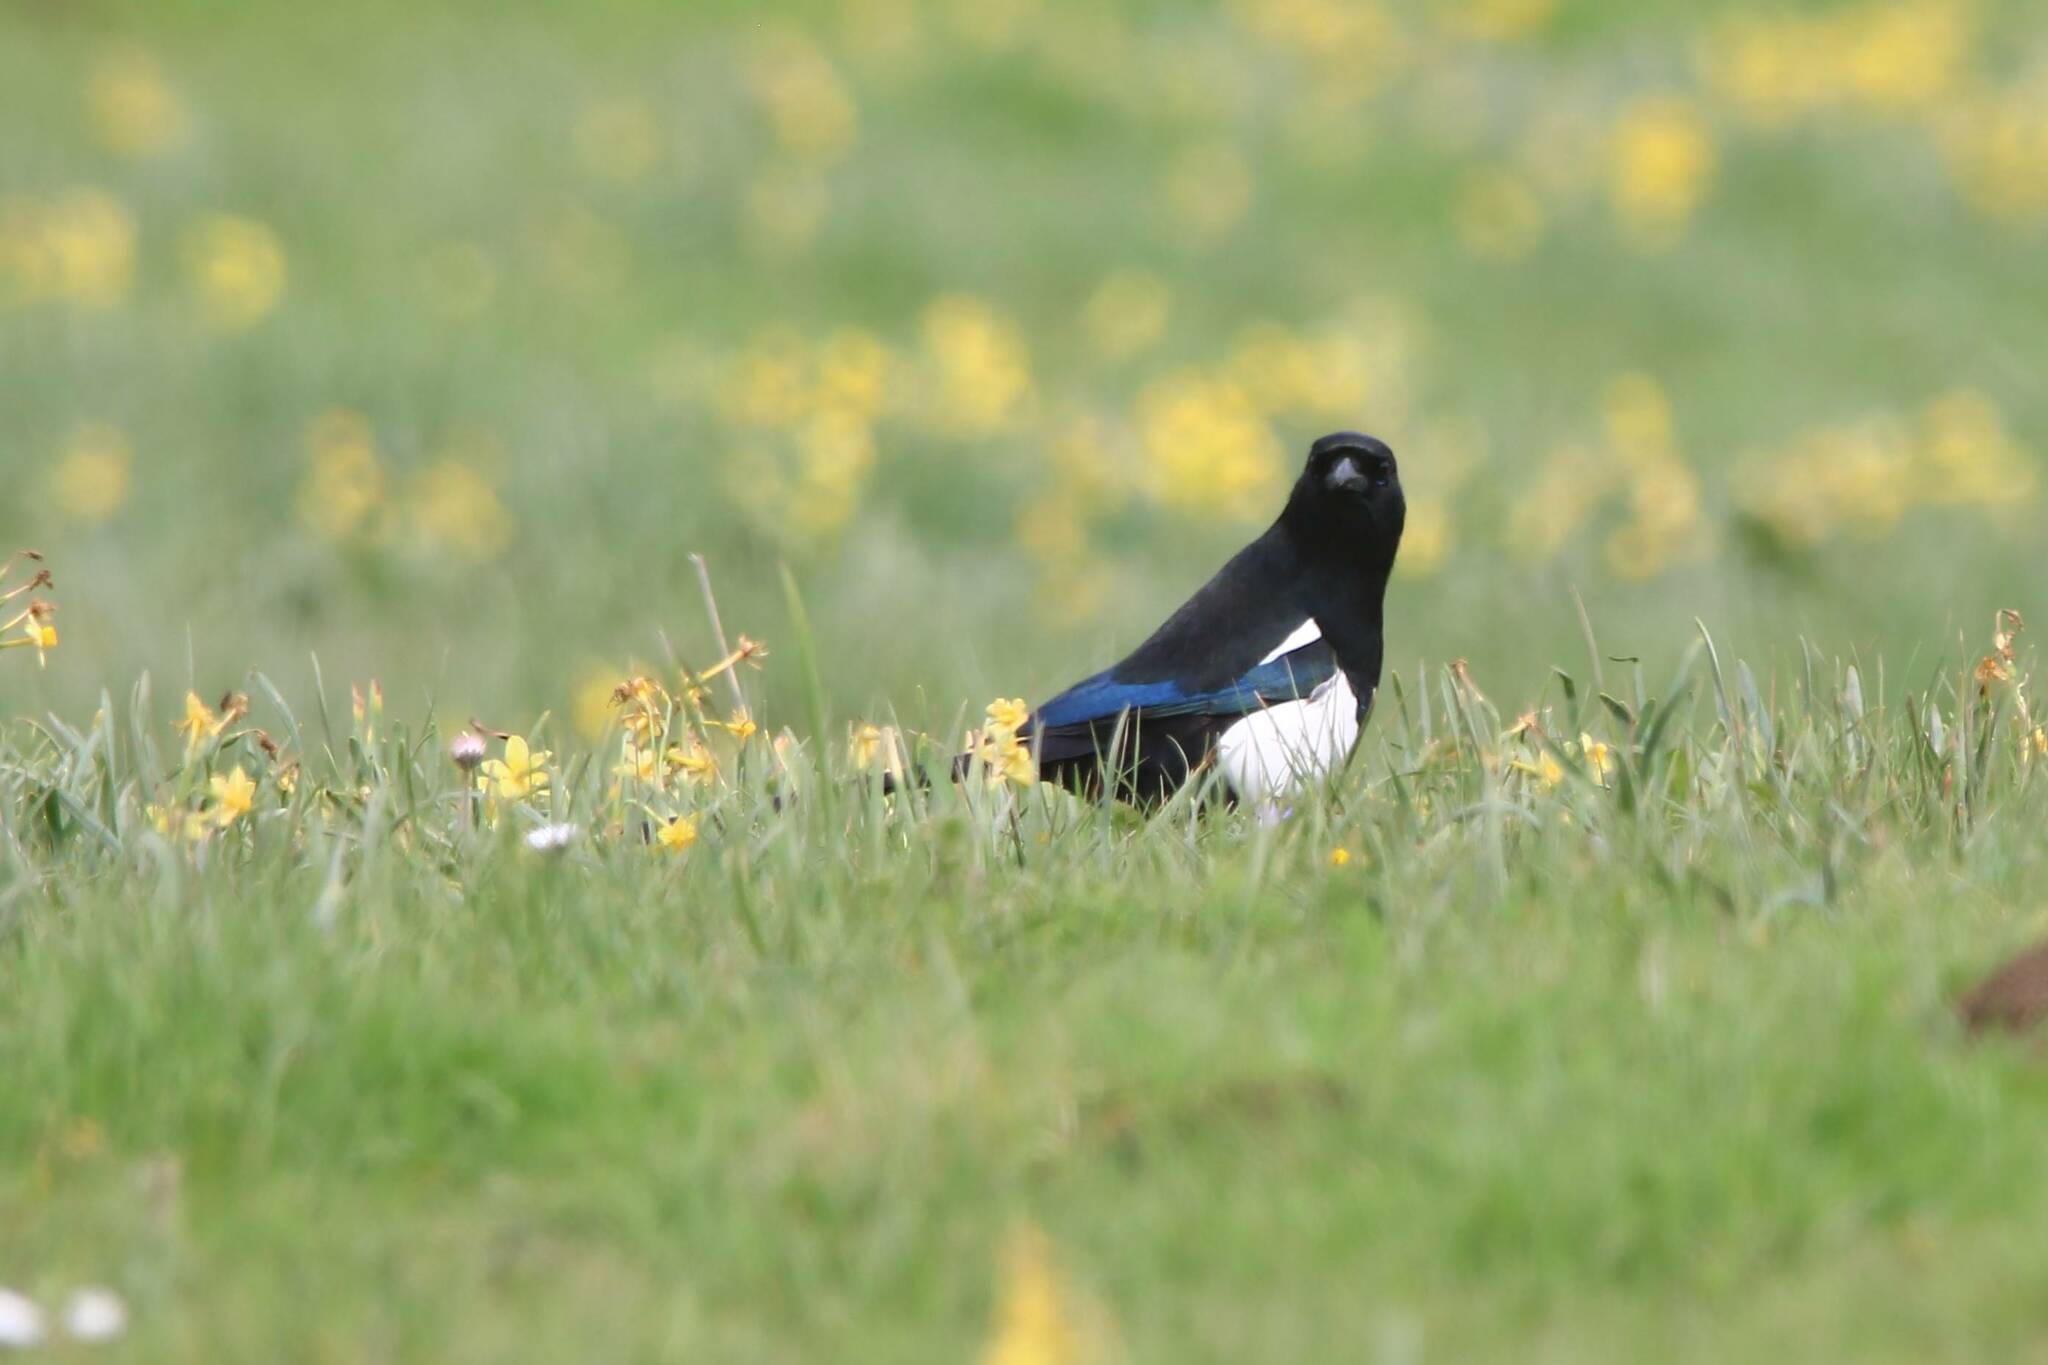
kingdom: Animalia
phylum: Chordata
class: Aves
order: Passeriformes
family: Corvidae
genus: Pica
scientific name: Pica mauritanica
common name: Maghreb magpie
